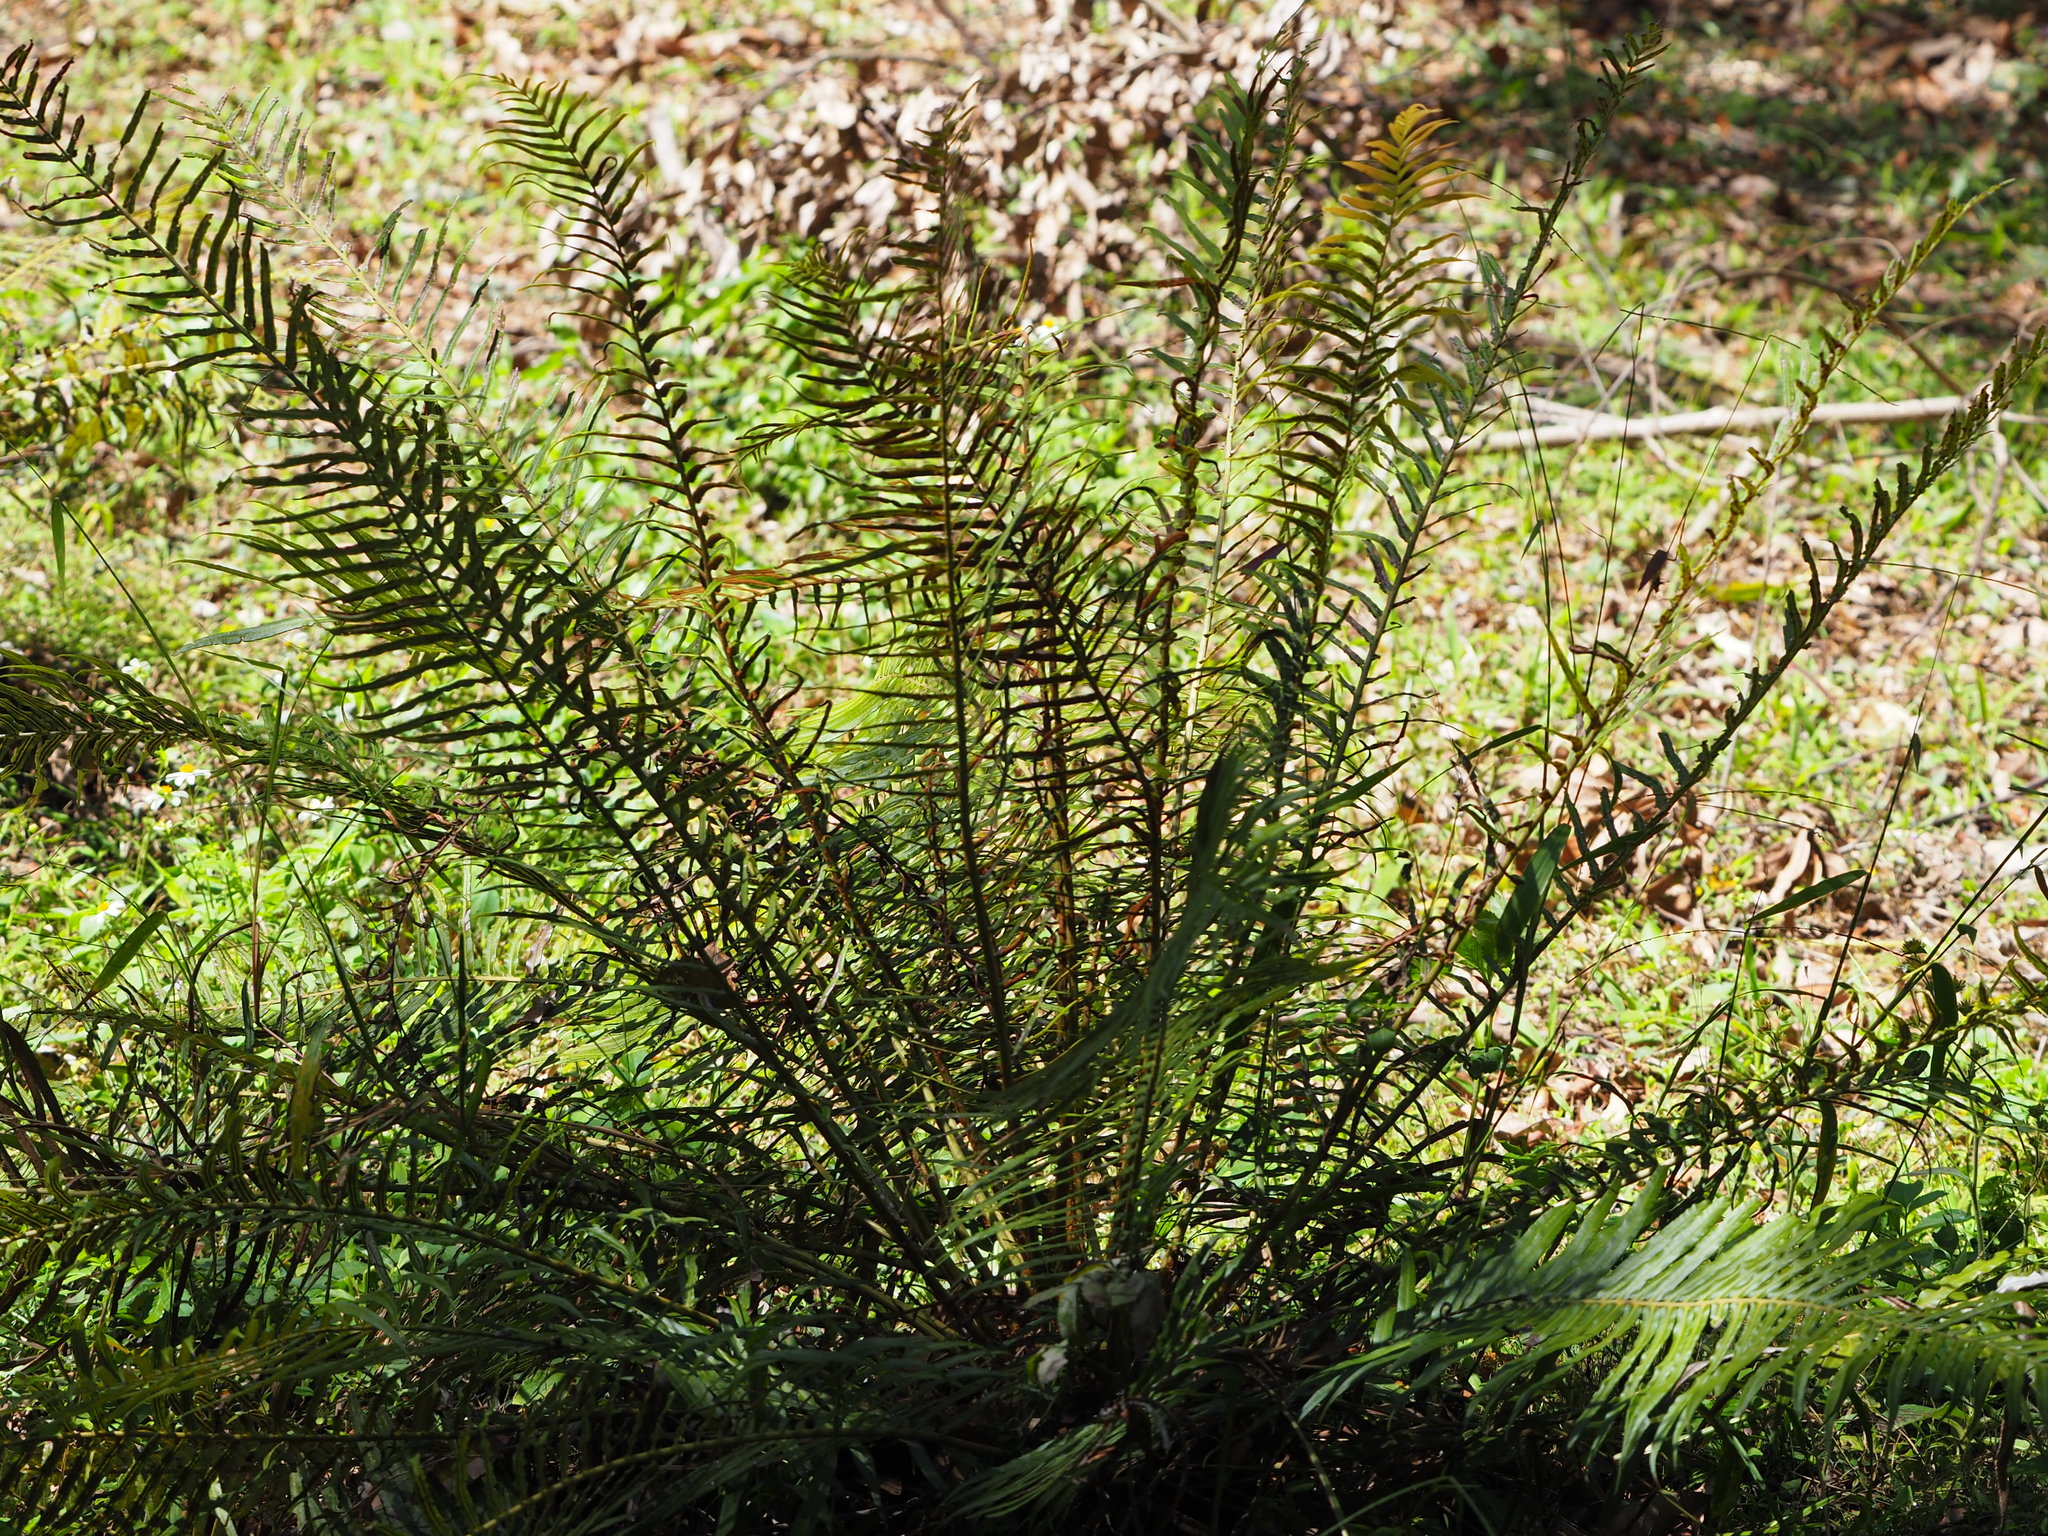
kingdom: Plantae
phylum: Tracheophyta
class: Polypodiopsida
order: Polypodiales
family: Blechnaceae
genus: Brainea
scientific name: Brainea insignis
